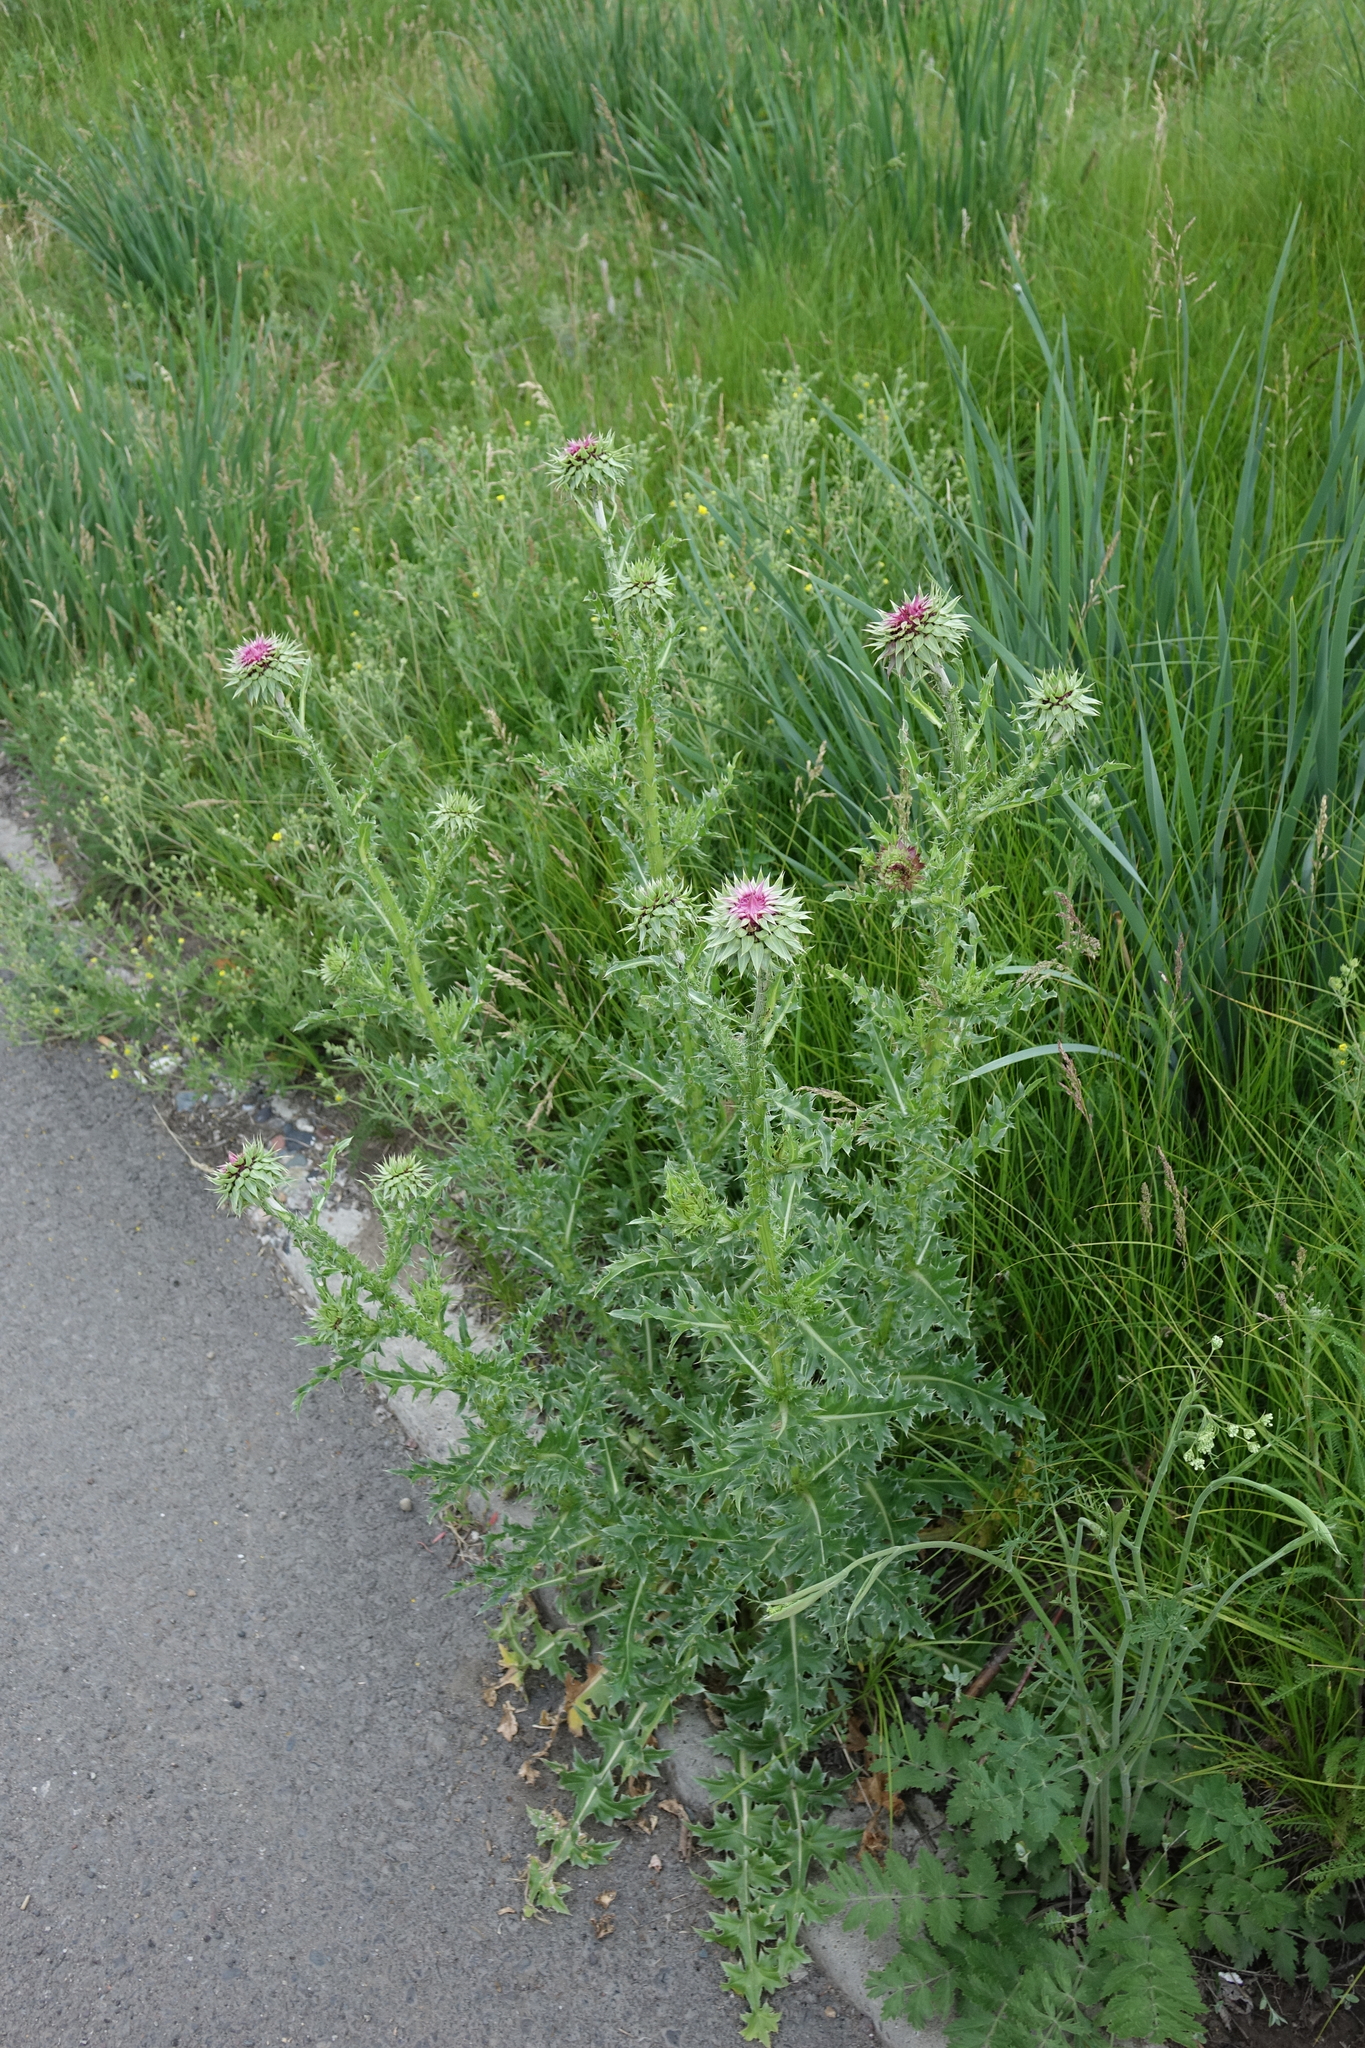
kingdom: Plantae
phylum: Tracheophyta
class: Magnoliopsida
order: Asterales
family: Asteraceae
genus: Carduus
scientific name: Carduus nutans
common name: Musk thistle
